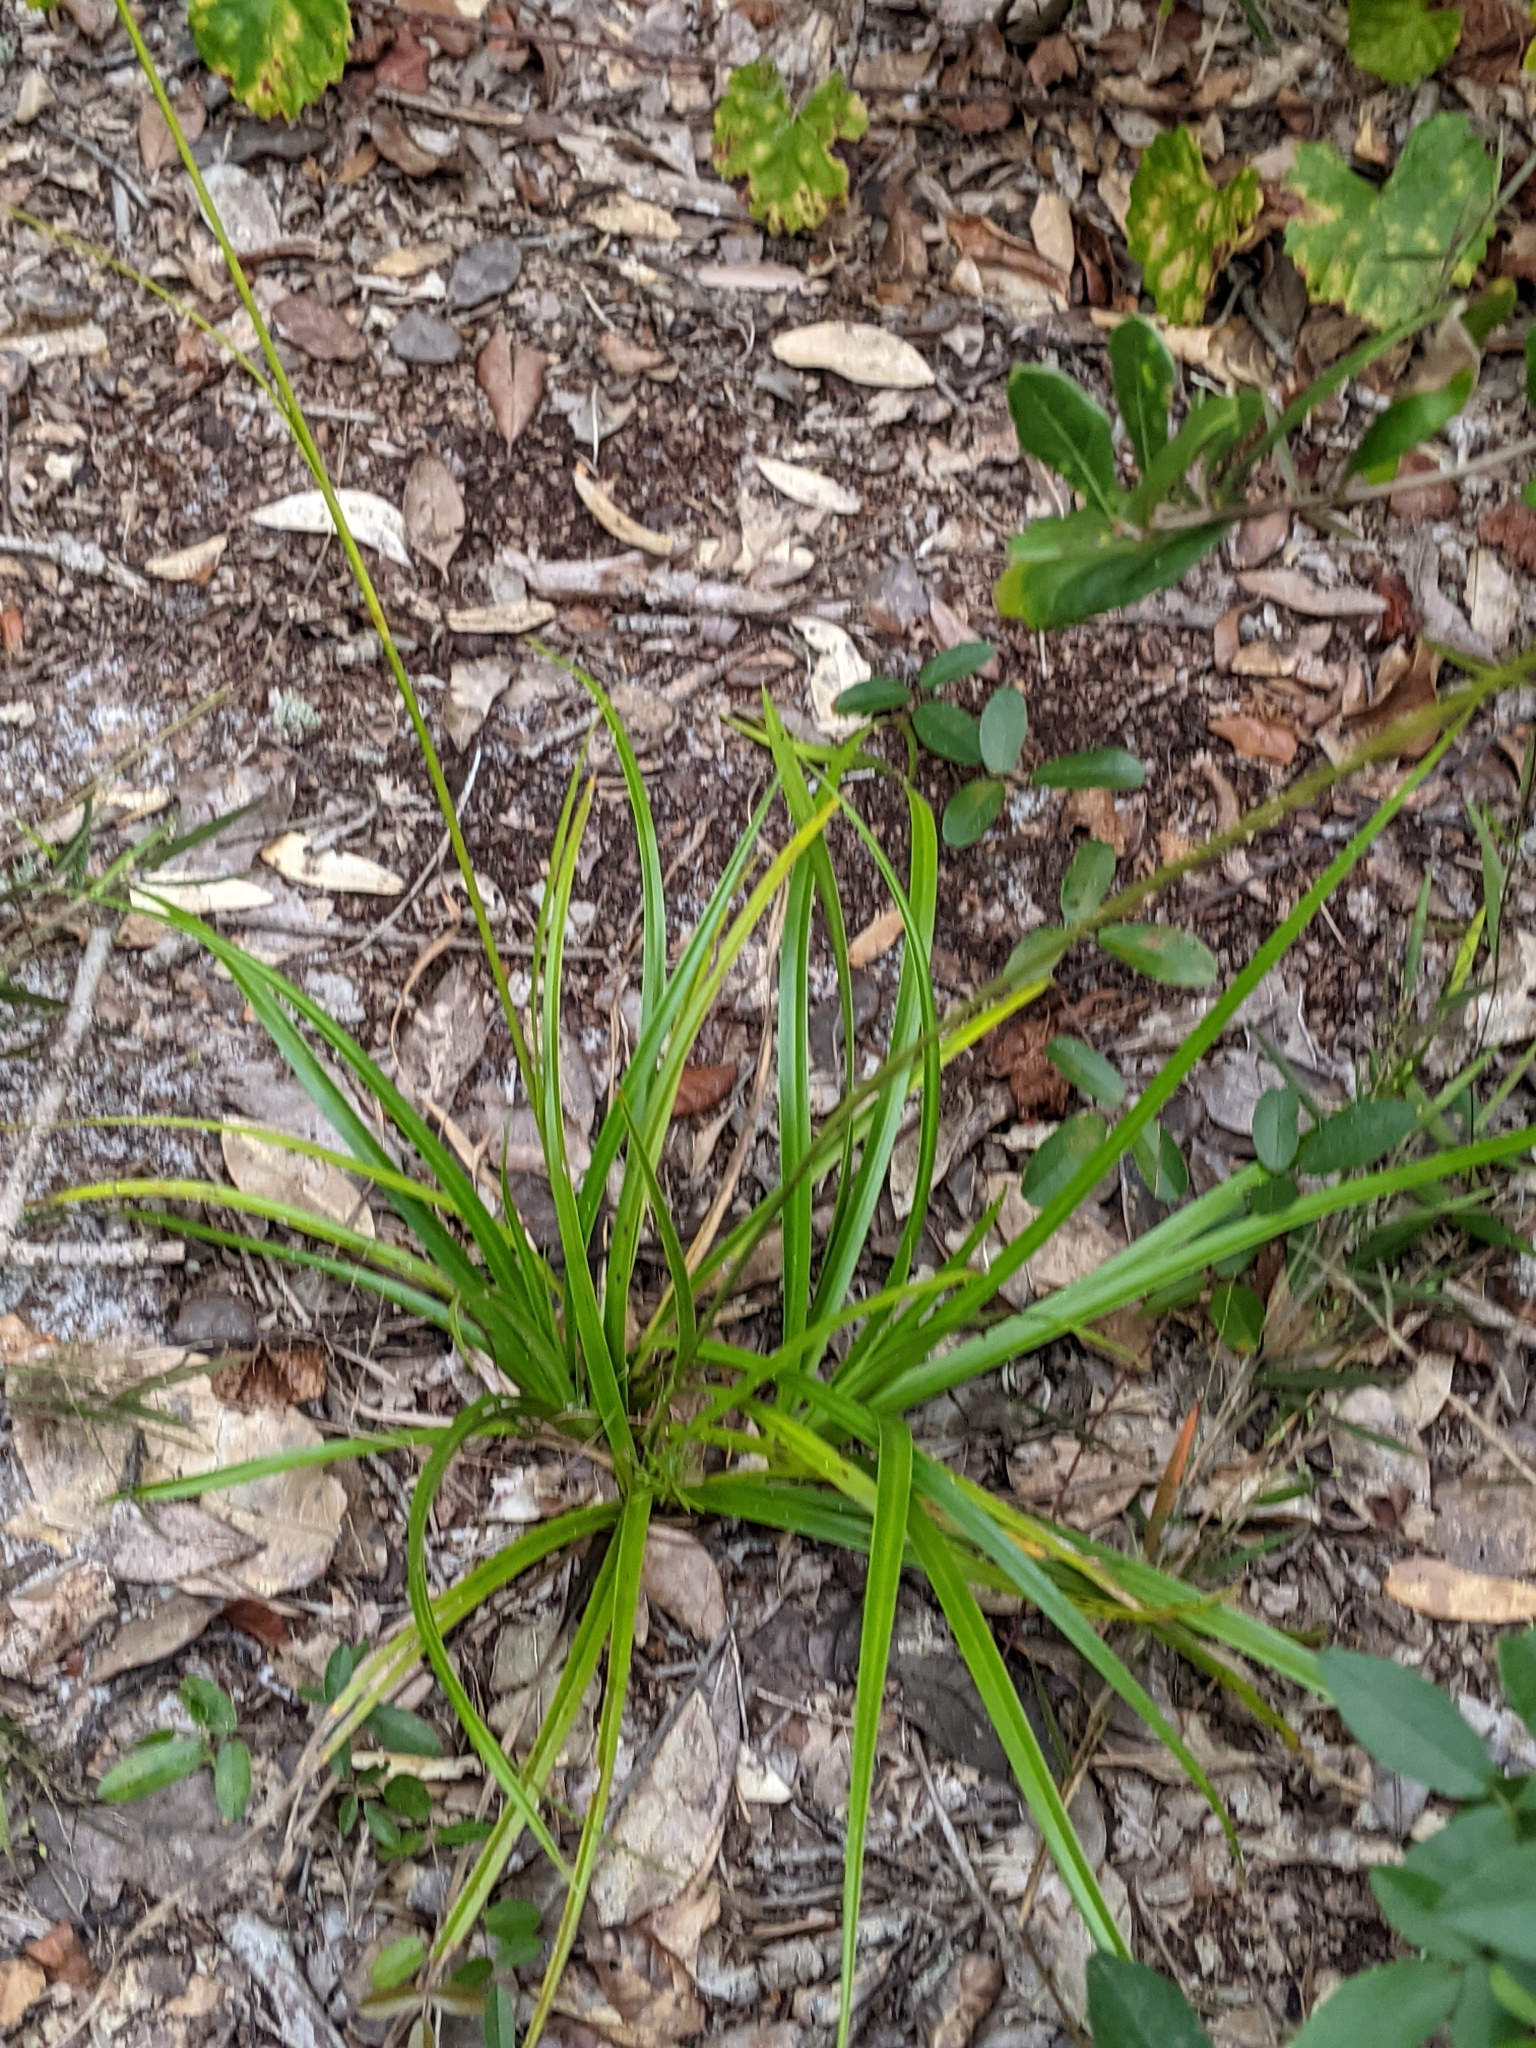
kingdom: Plantae
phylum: Tracheophyta
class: Liliopsida
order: Poales
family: Cyperaceae
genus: Rhynchospora
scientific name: Rhynchospora megalocarpa
